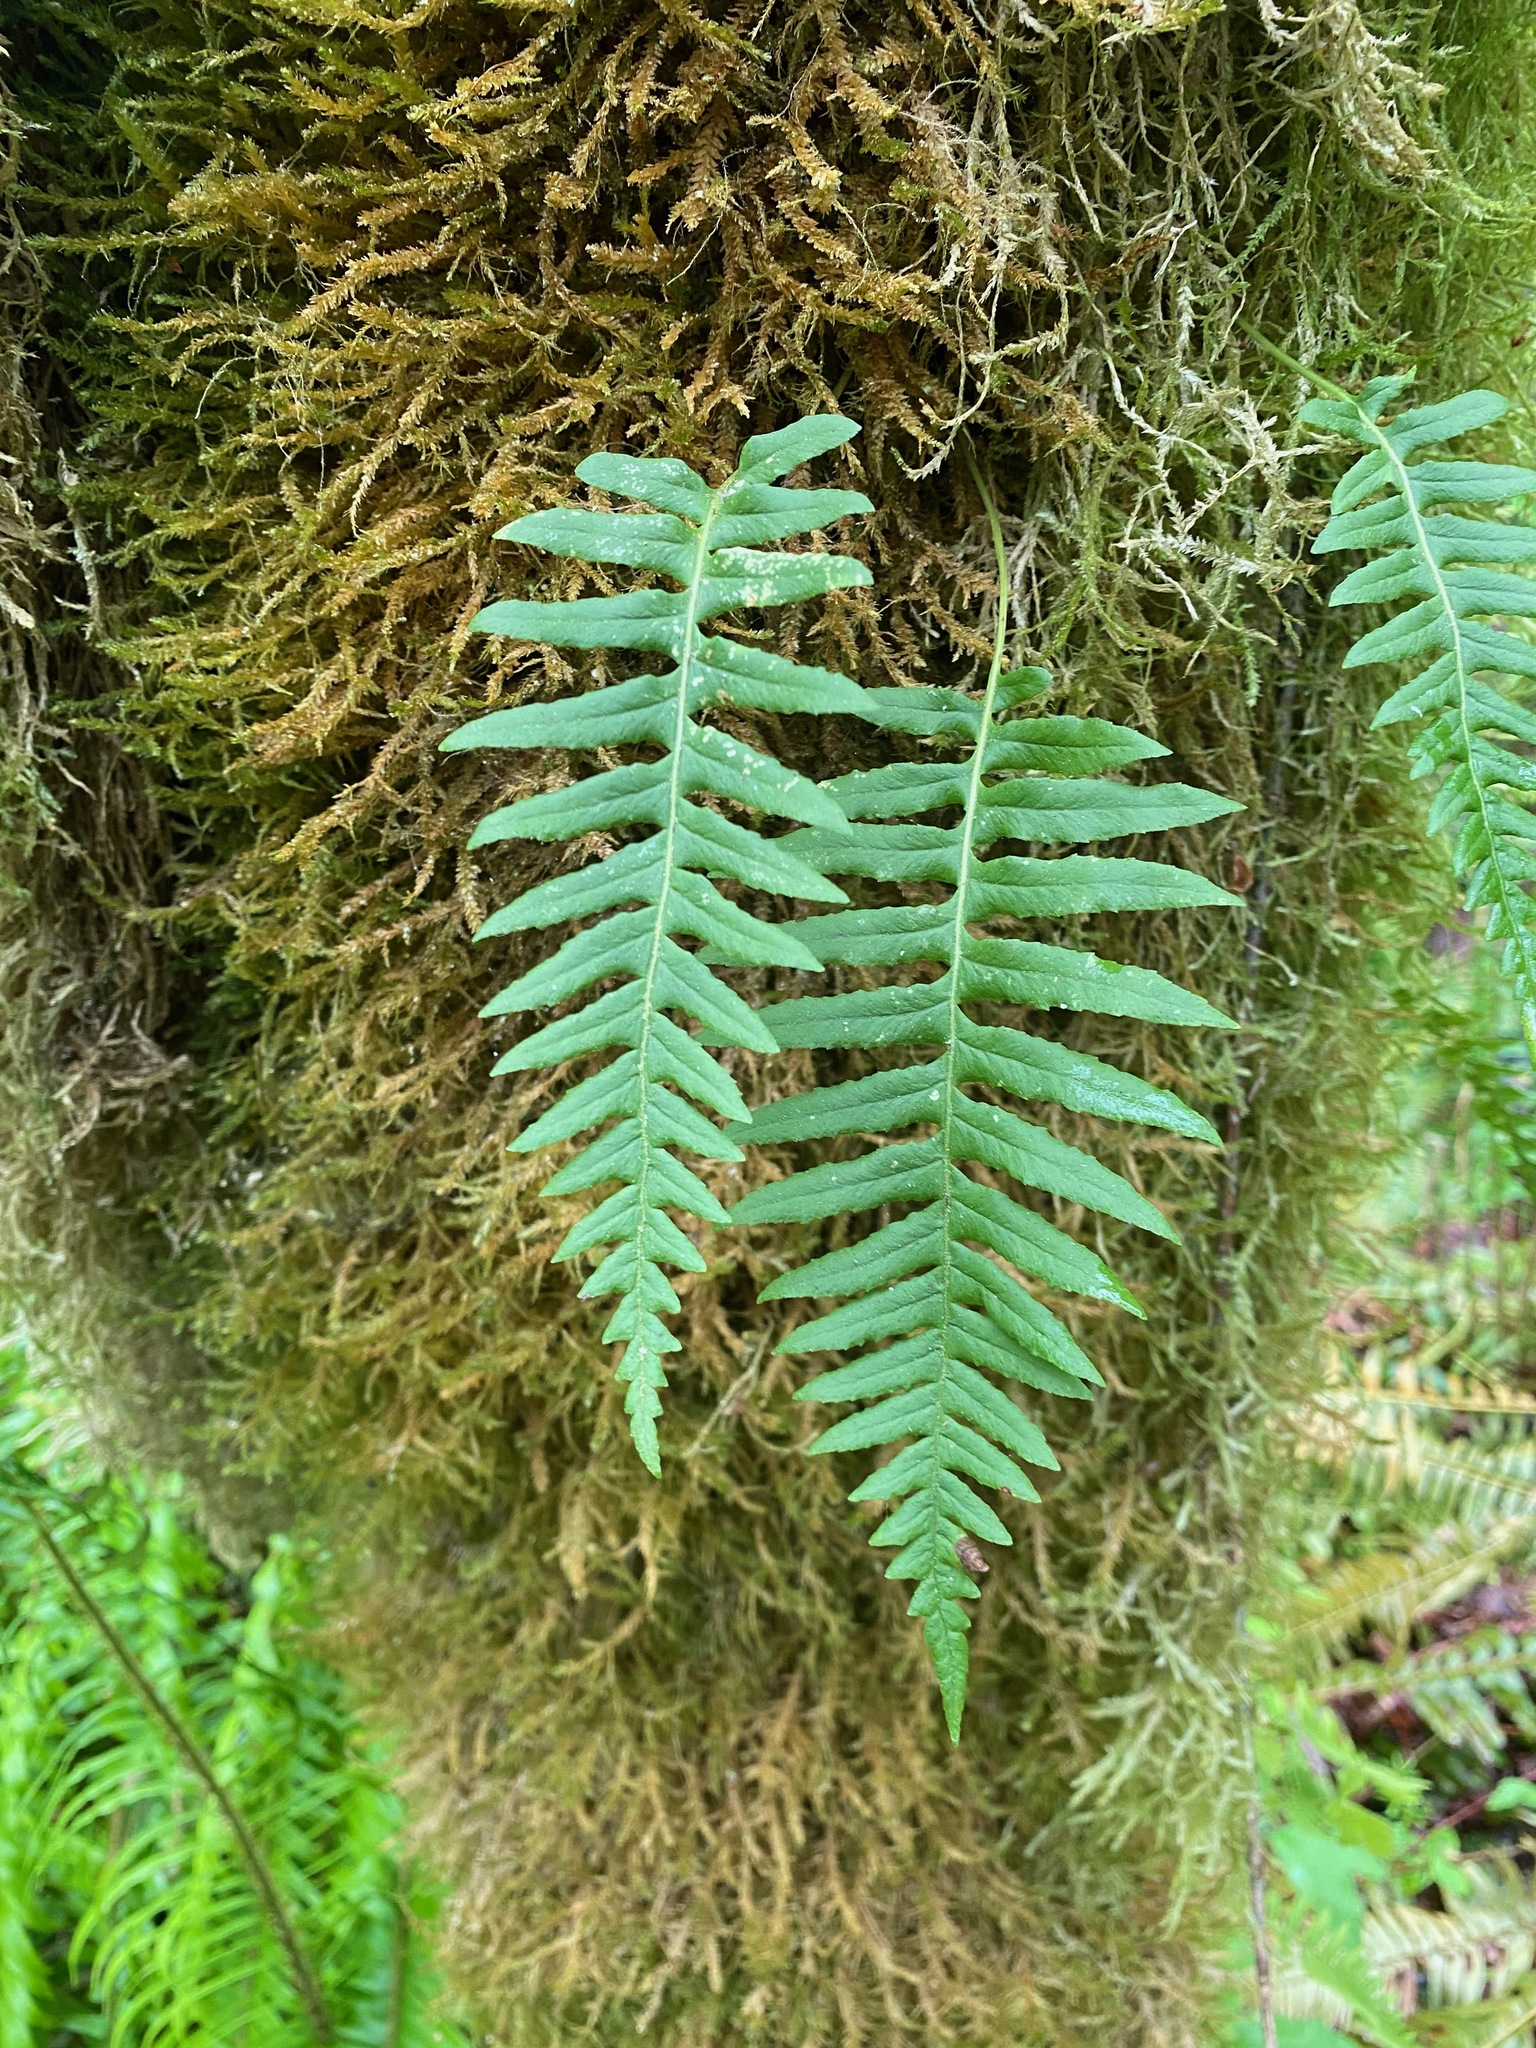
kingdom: Plantae
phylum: Tracheophyta
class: Polypodiopsida
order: Polypodiales
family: Polypodiaceae
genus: Polypodium
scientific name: Polypodium glycyrrhiza
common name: Licorice fern
